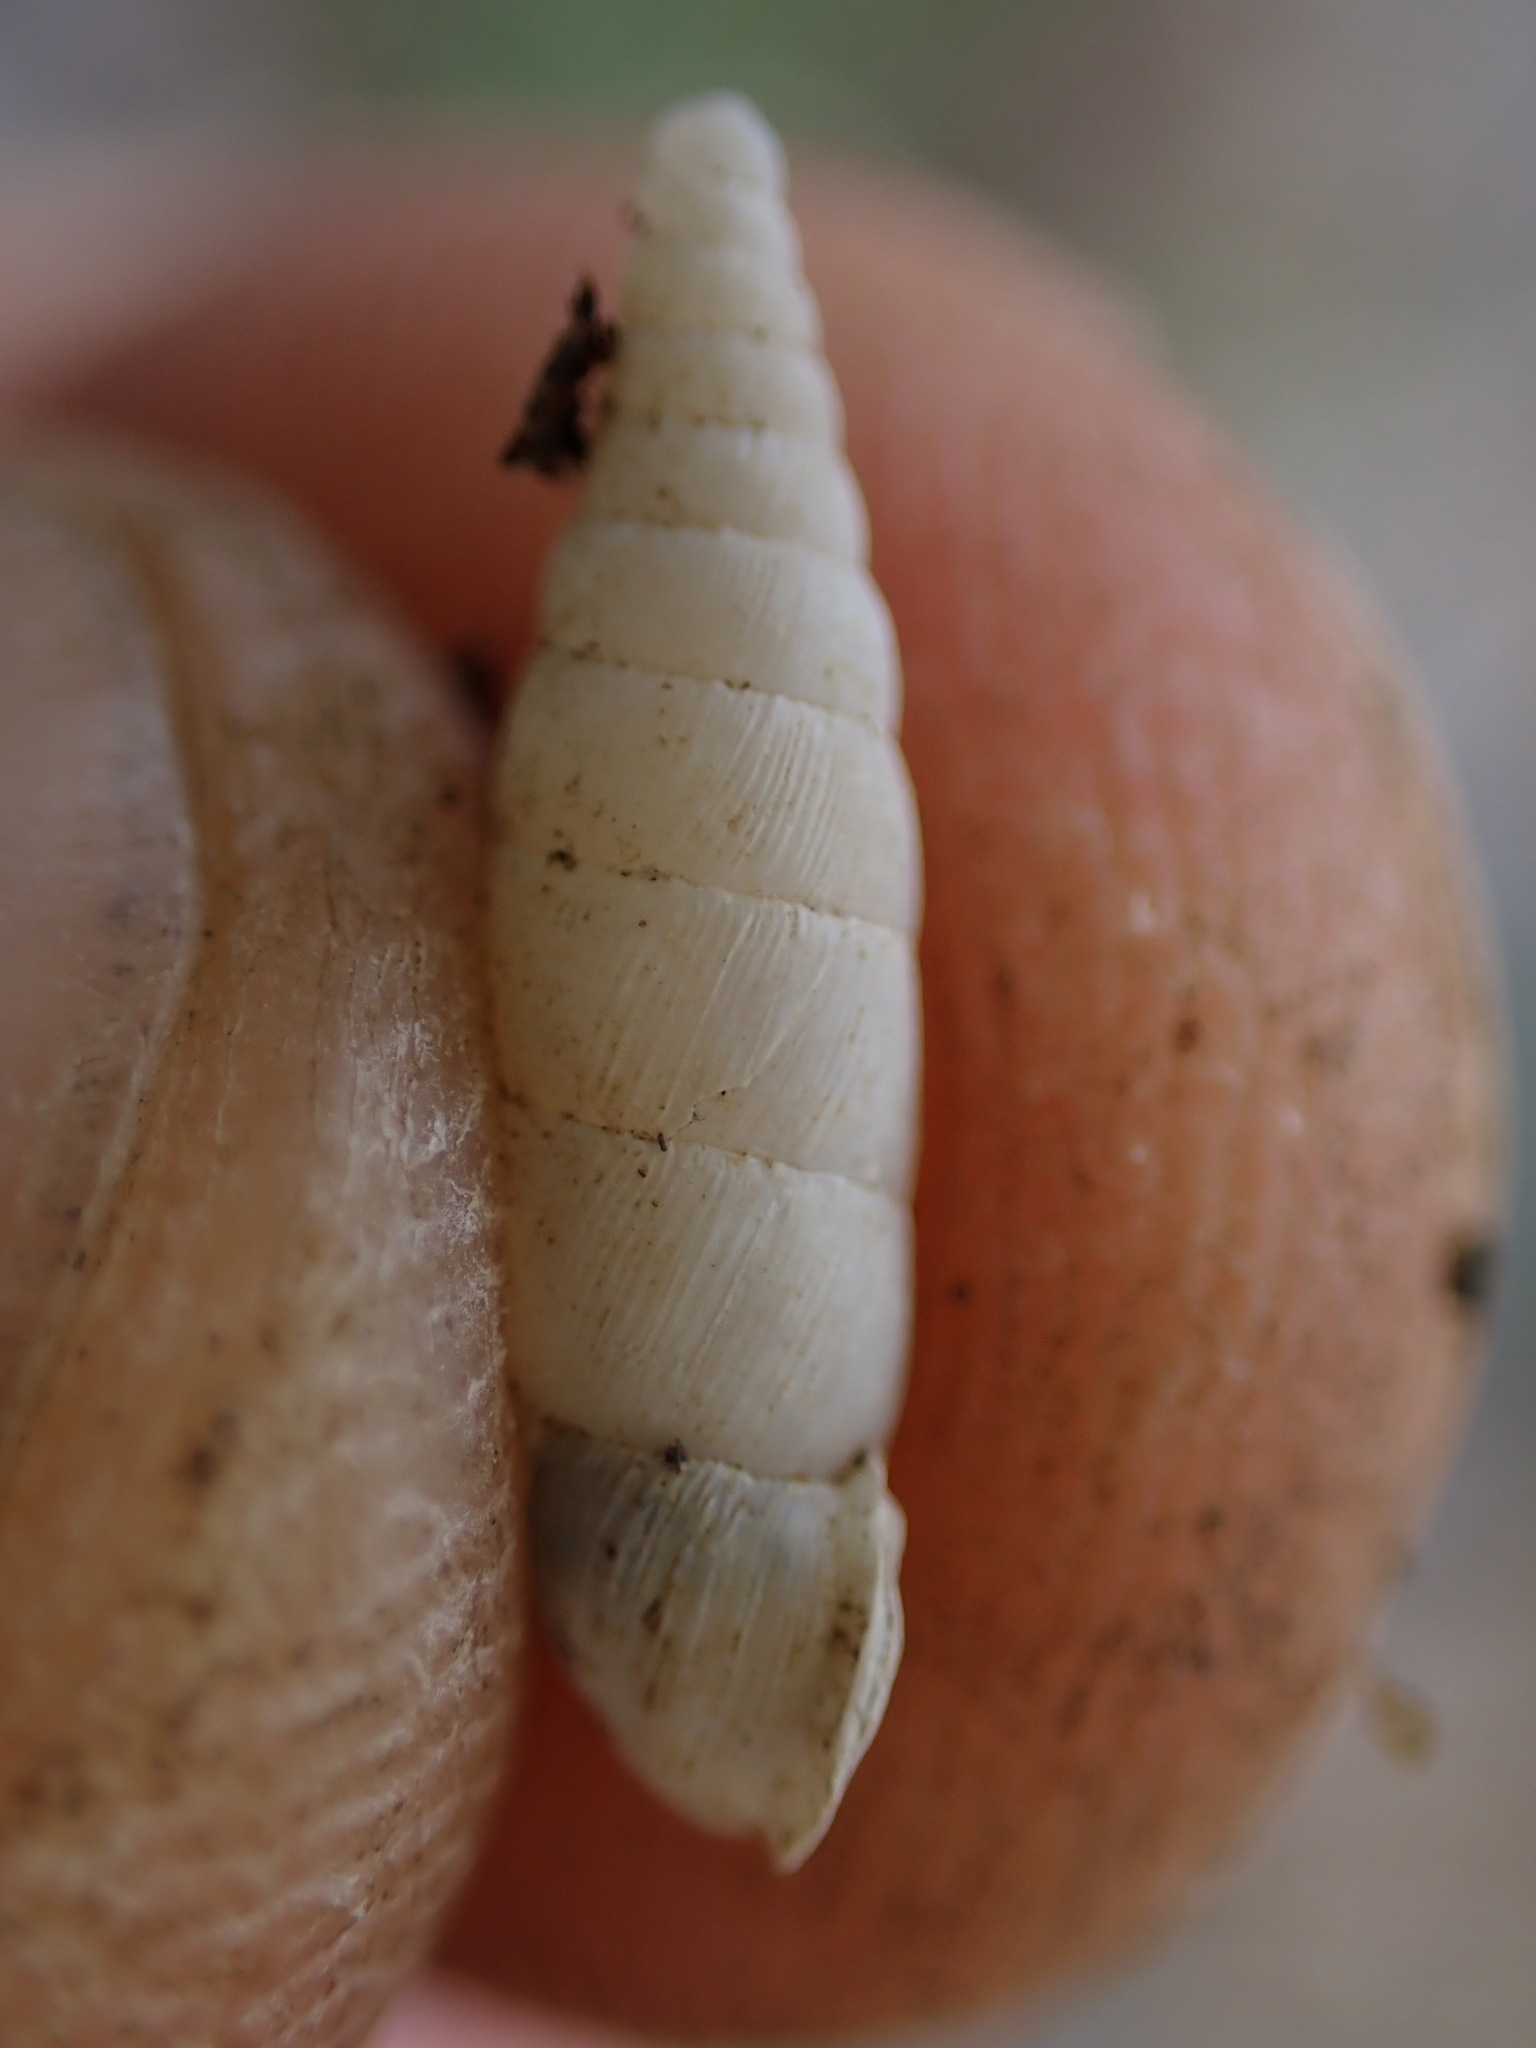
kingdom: Animalia
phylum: Mollusca
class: Gastropoda
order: Stylommatophora
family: Clausiliidae
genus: Papillifera
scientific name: Papillifera solida
